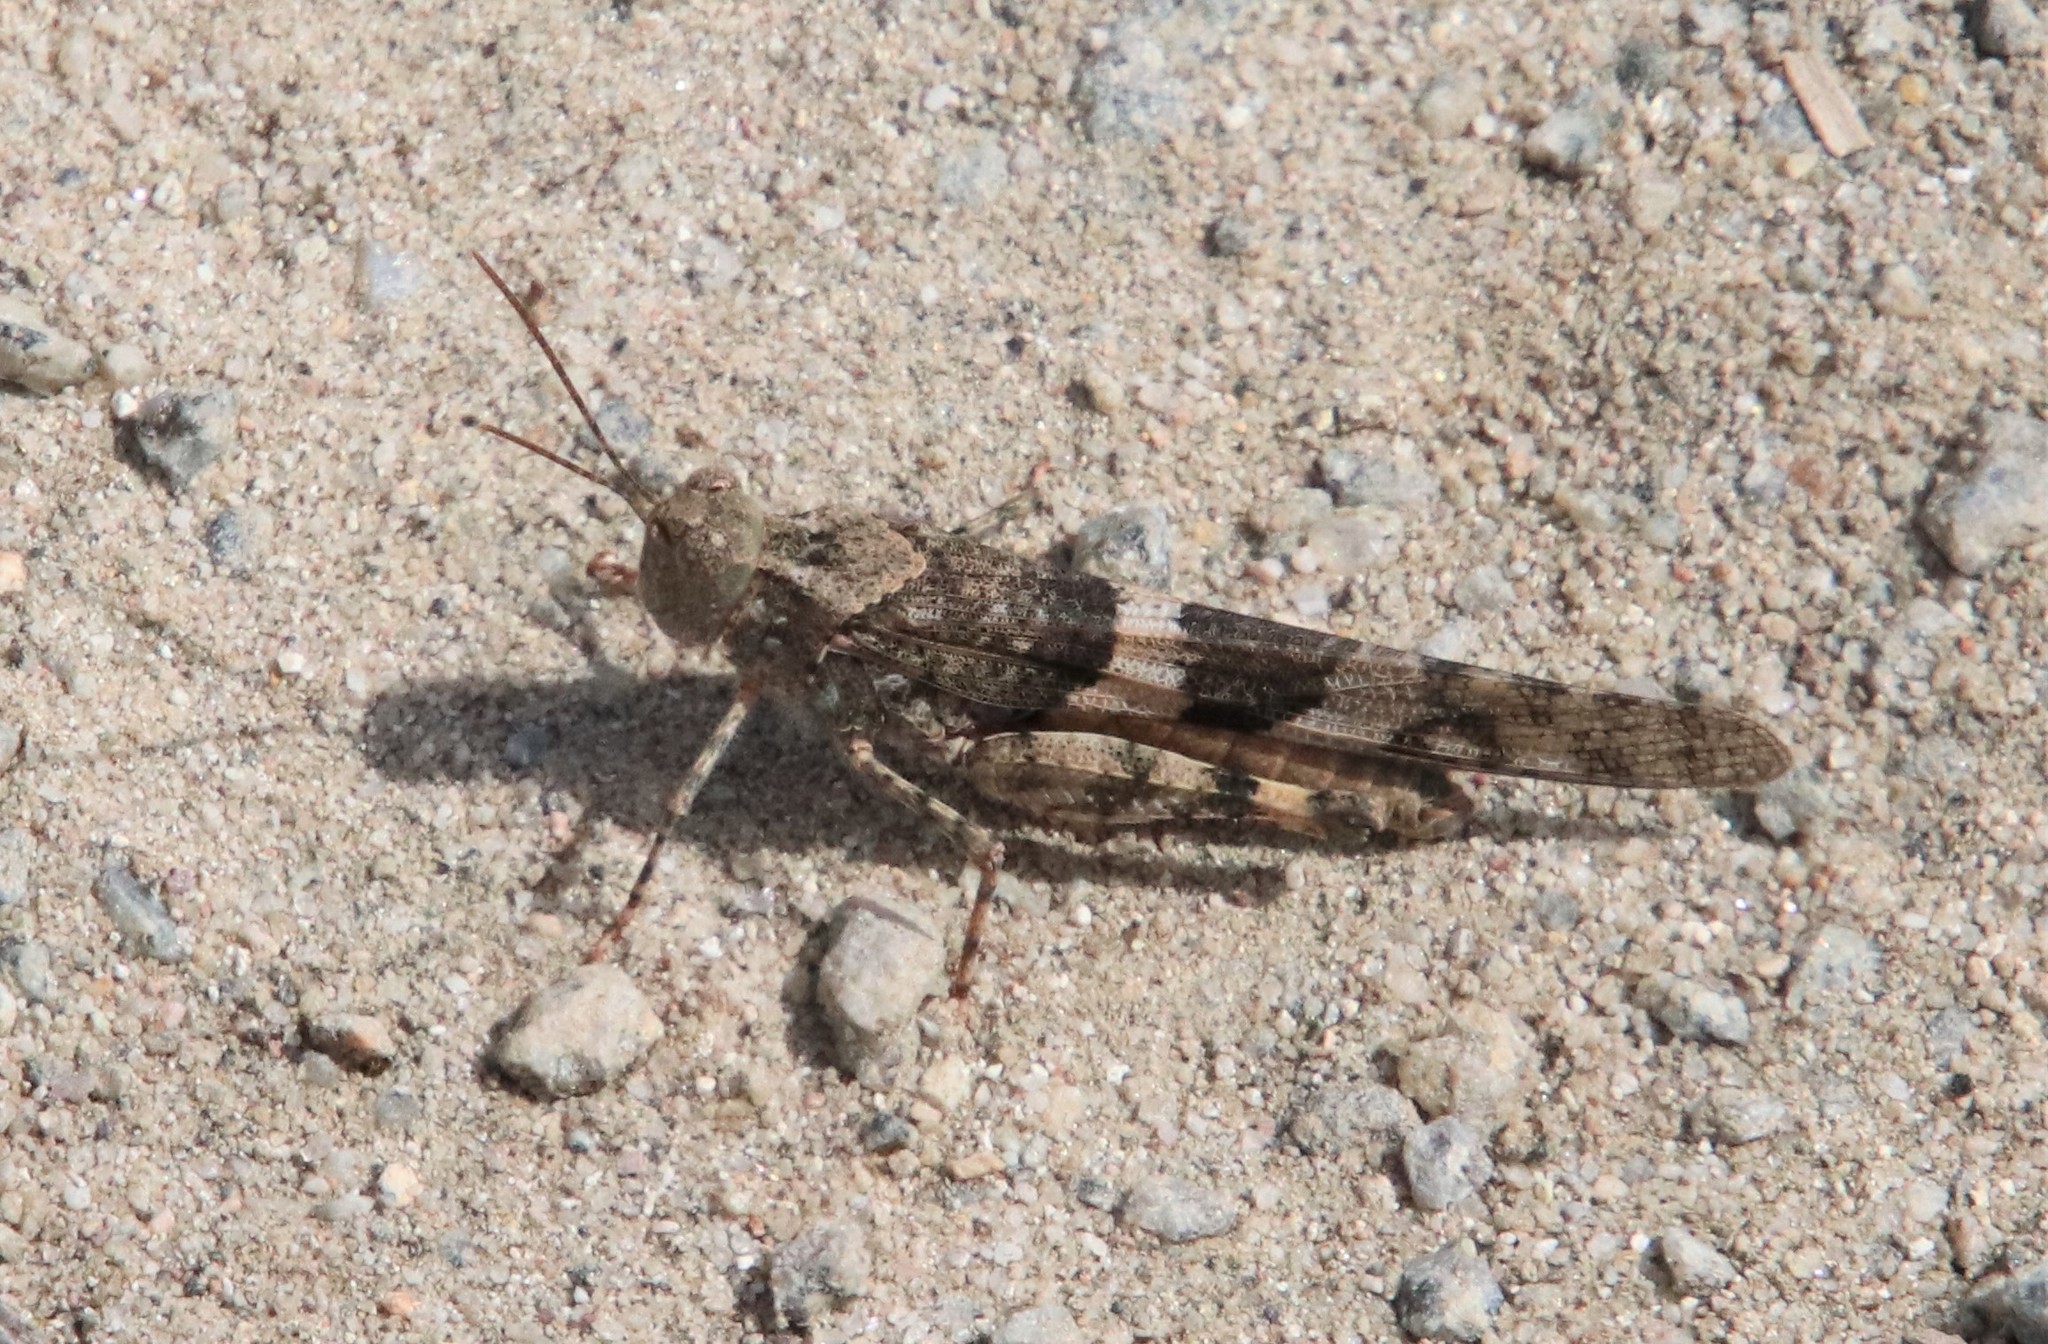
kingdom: Animalia
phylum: Arthropoda
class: Insecta
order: Orthoptera
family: Acrididae
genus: Trimerotropis
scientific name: Trimerotropis pallidipennis
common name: Pallid-winged grasshopper
